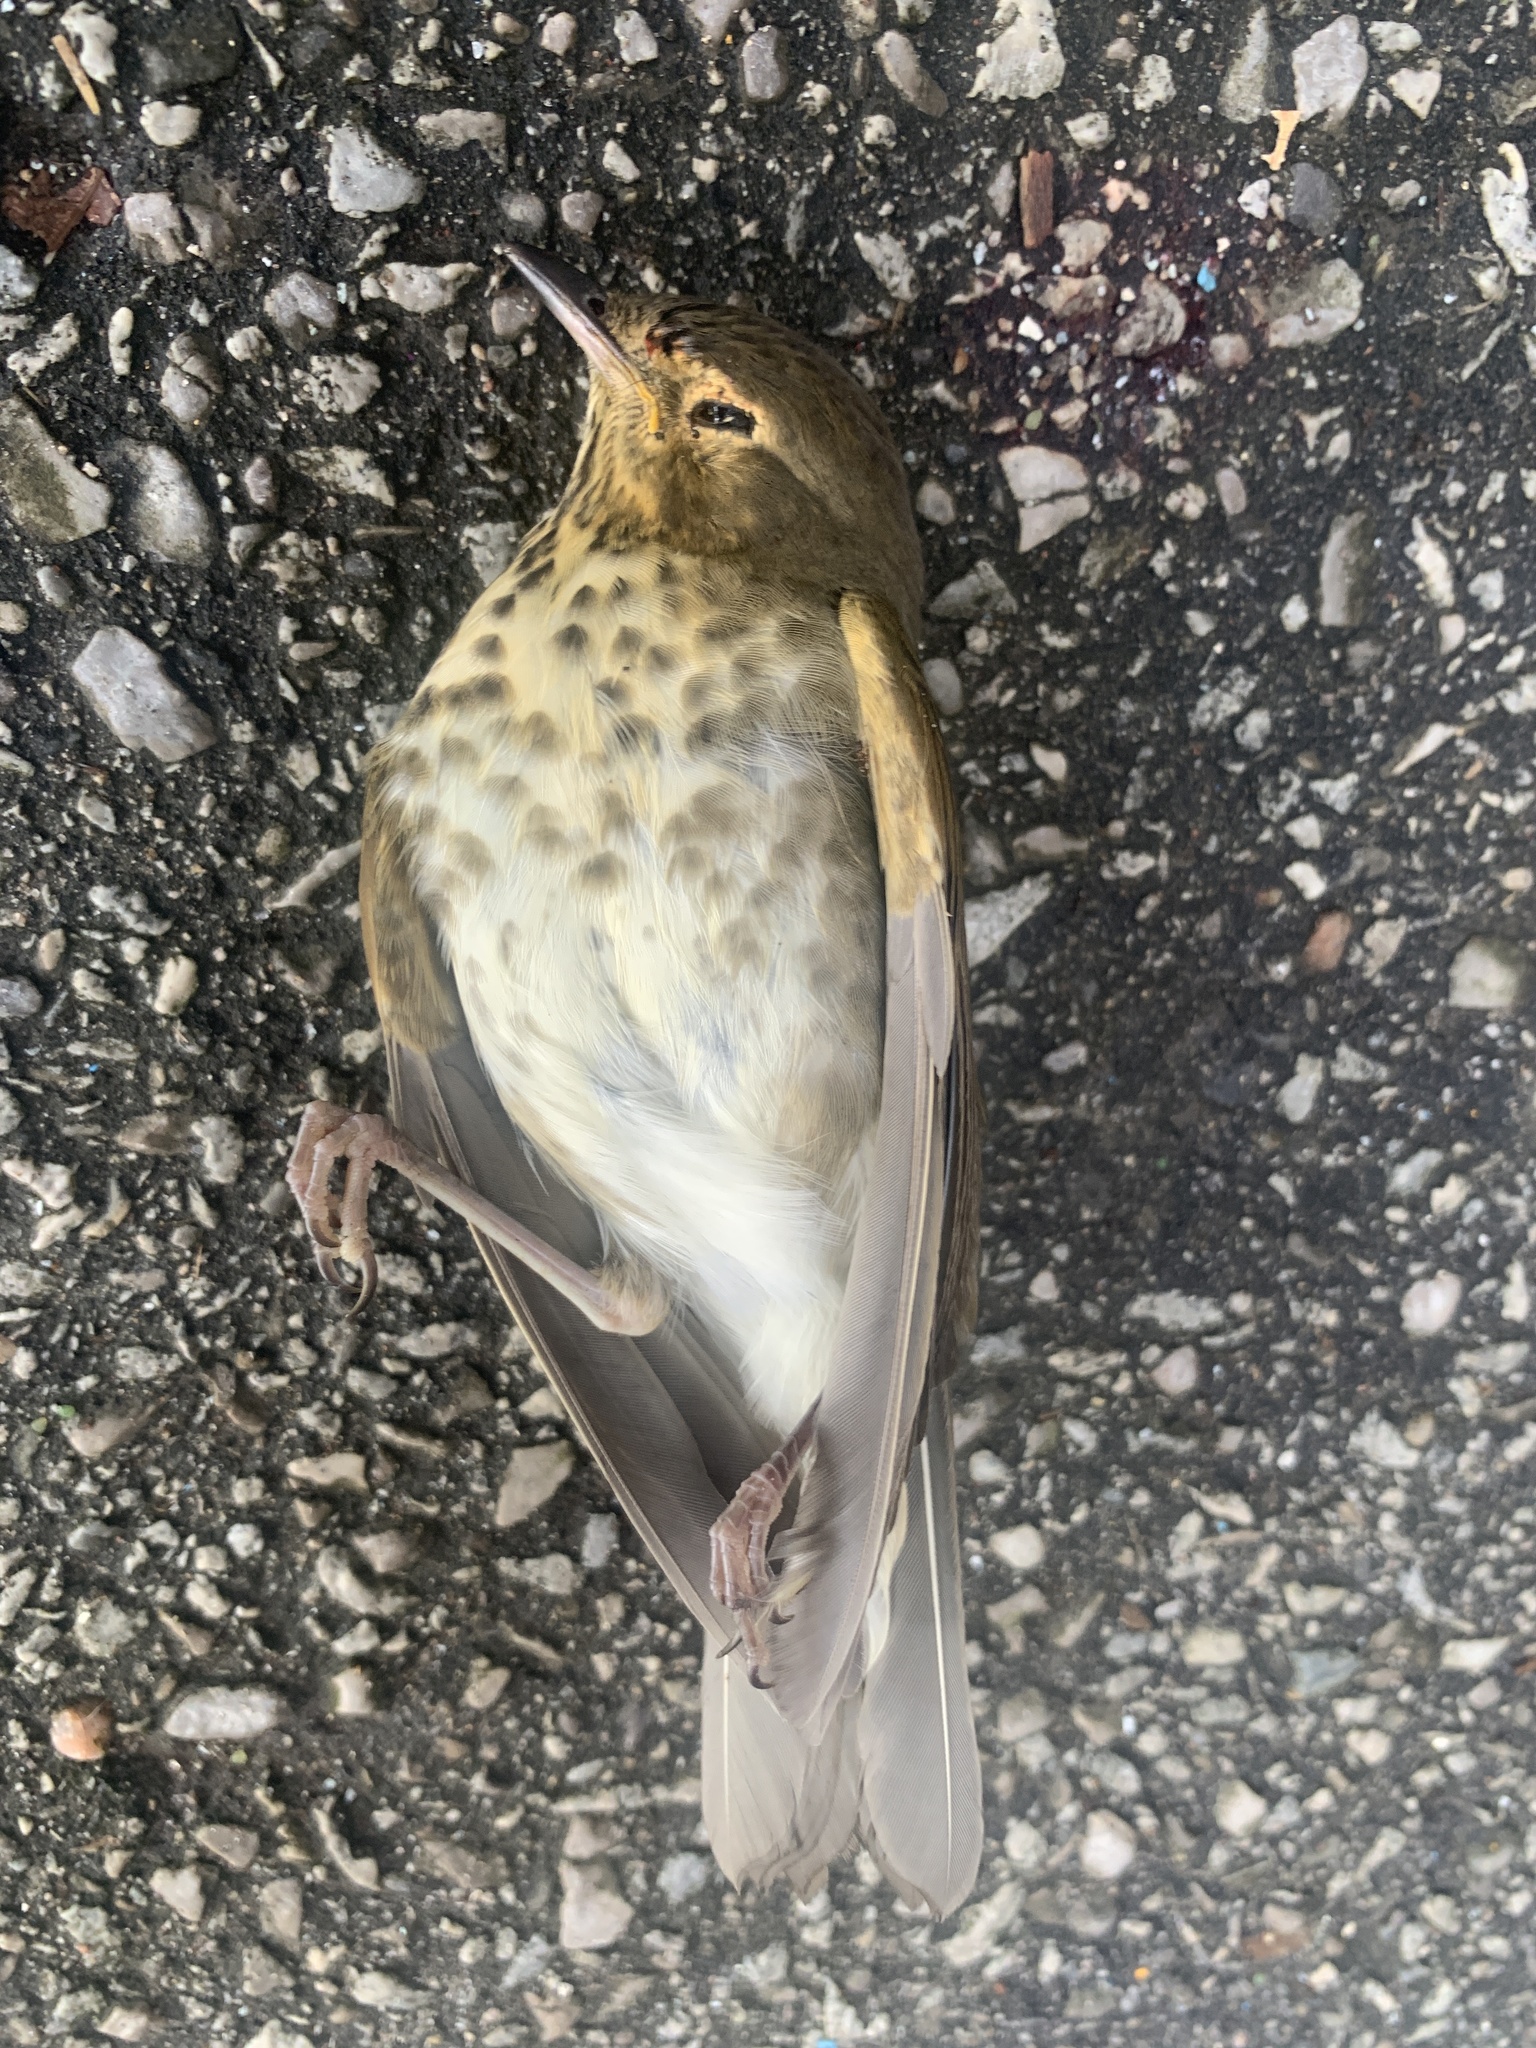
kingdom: Animalia
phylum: Chordata
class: Aves
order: Passeriformes
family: Turdidae
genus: Catharus
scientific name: Catharus ustulatus
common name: Swainson's thrush
